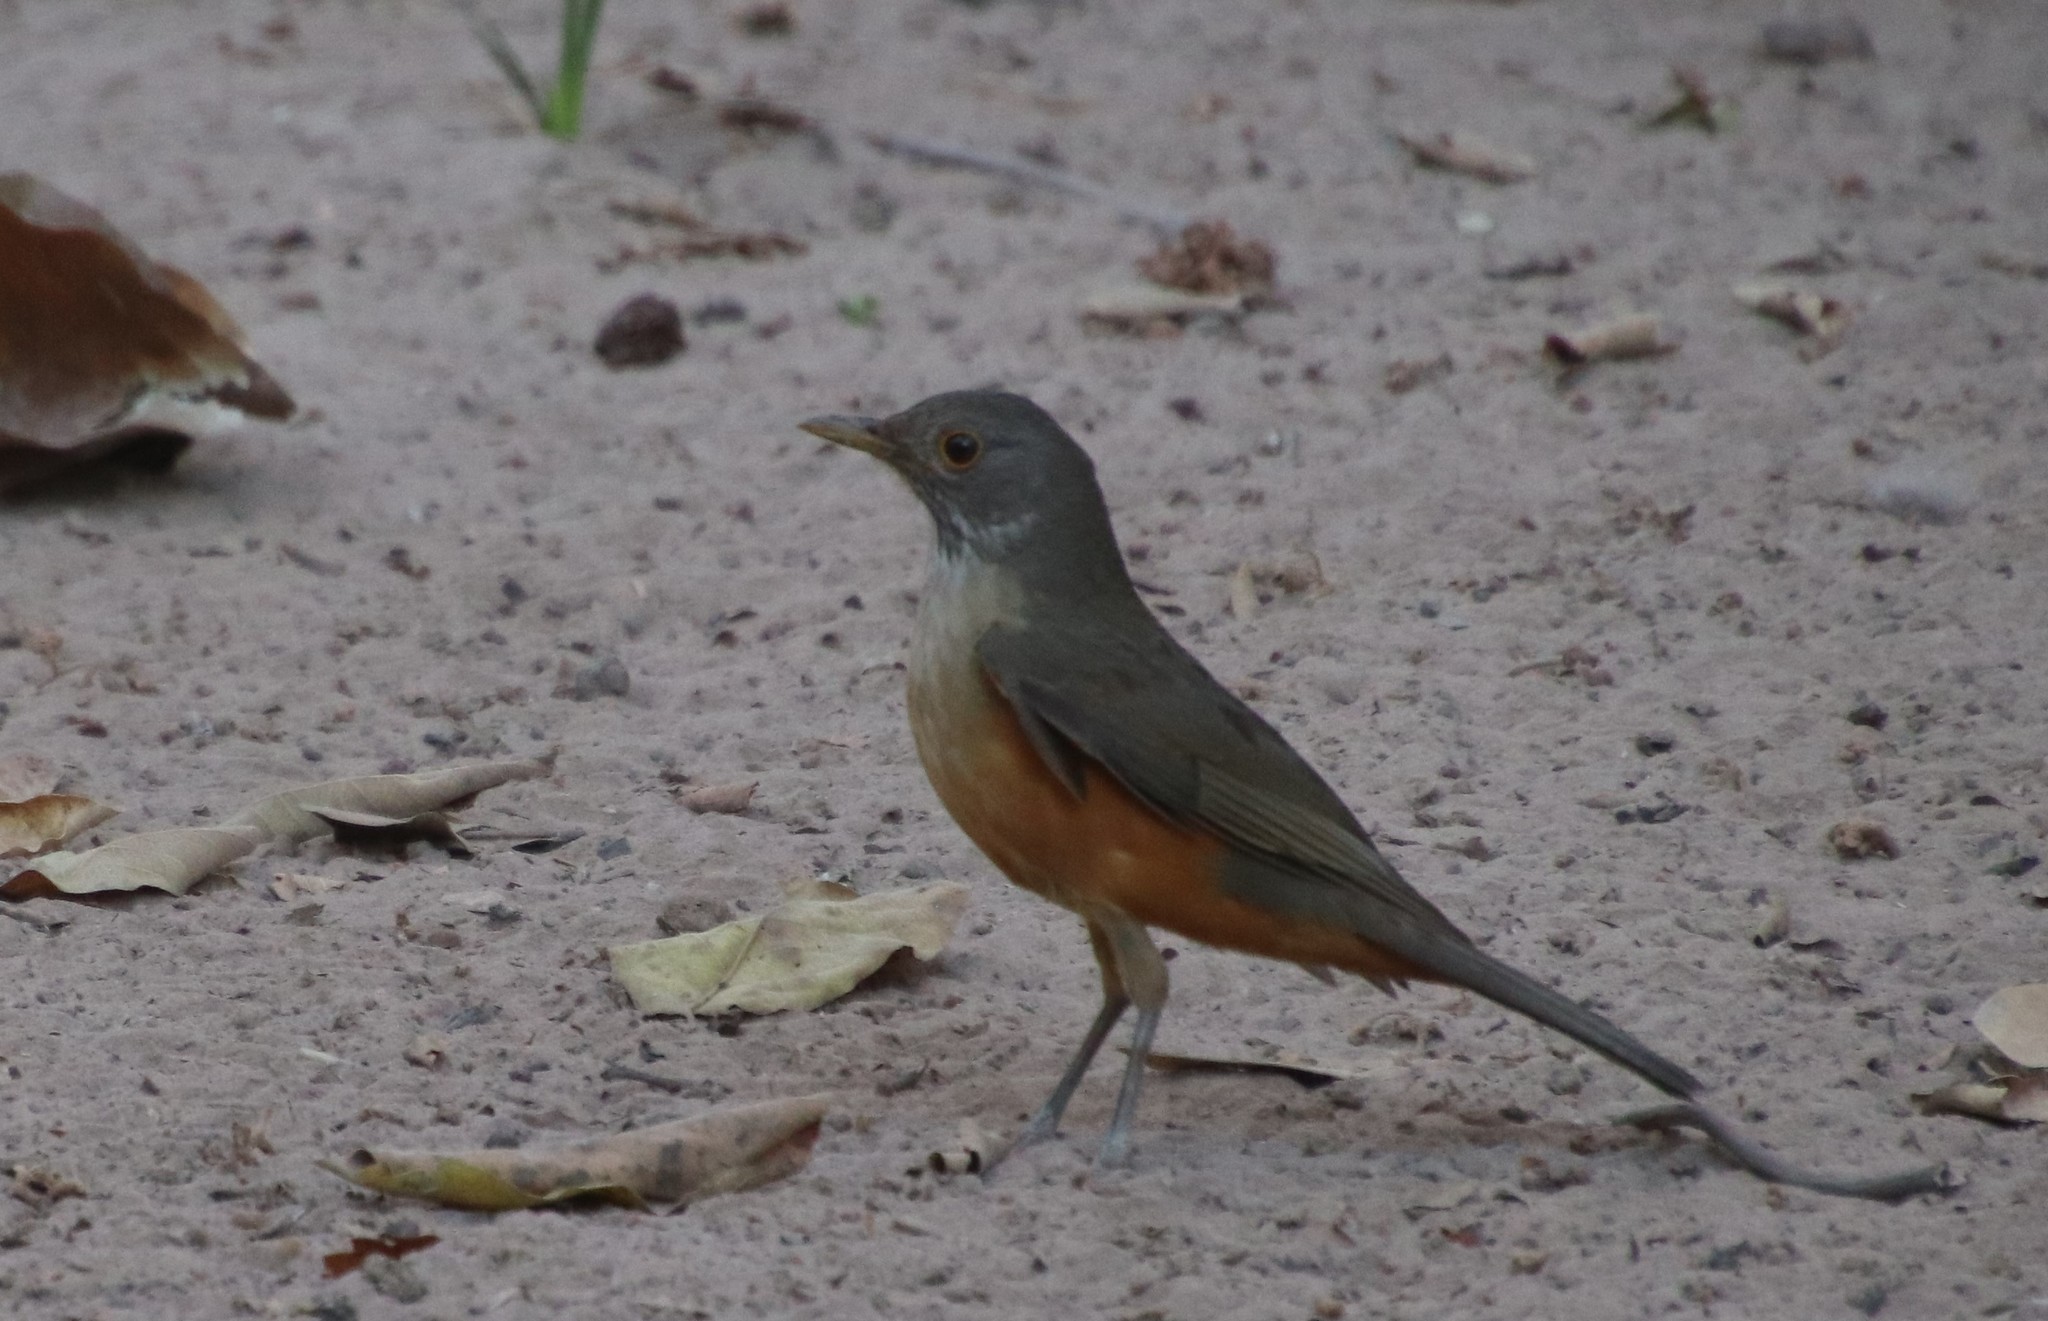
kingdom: Animalia
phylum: Chordata
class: Aves
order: Passeriformes
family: Turdidae
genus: Turdus
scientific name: Turdus rufiventris
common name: Rufous-bellied thrush
